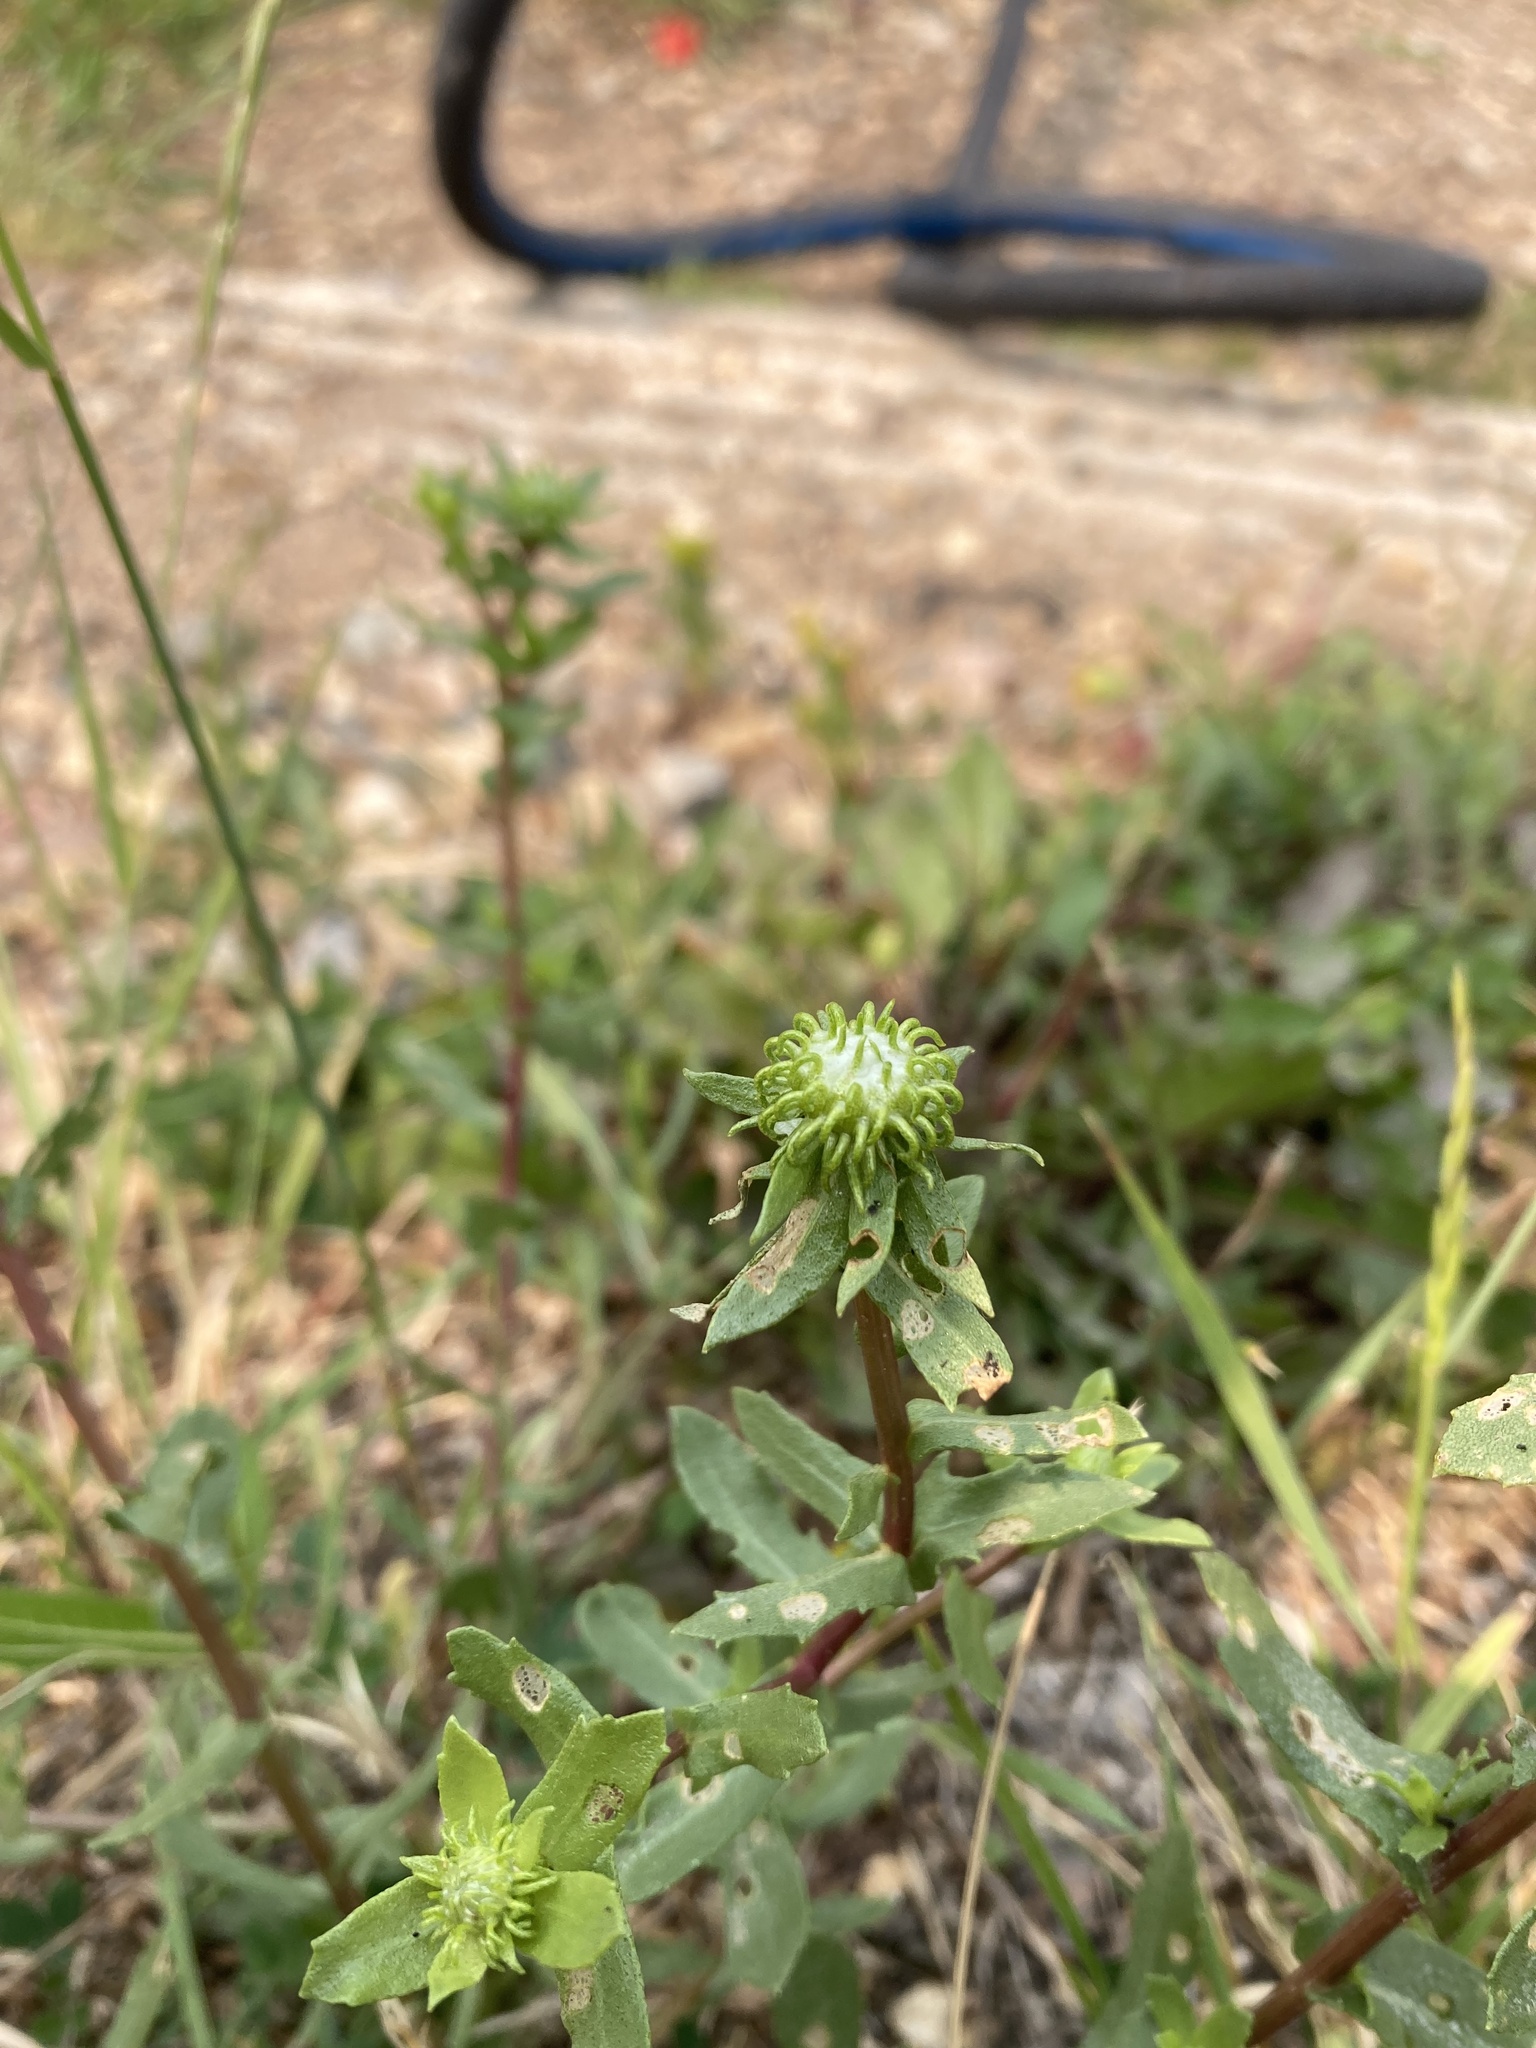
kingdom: Plantae
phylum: Tracheophyta
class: Magnoliopsida
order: Asterales
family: Asteraceae
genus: Grindelia
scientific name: Grindelia squarrosa
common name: Curly-cup gumweed
